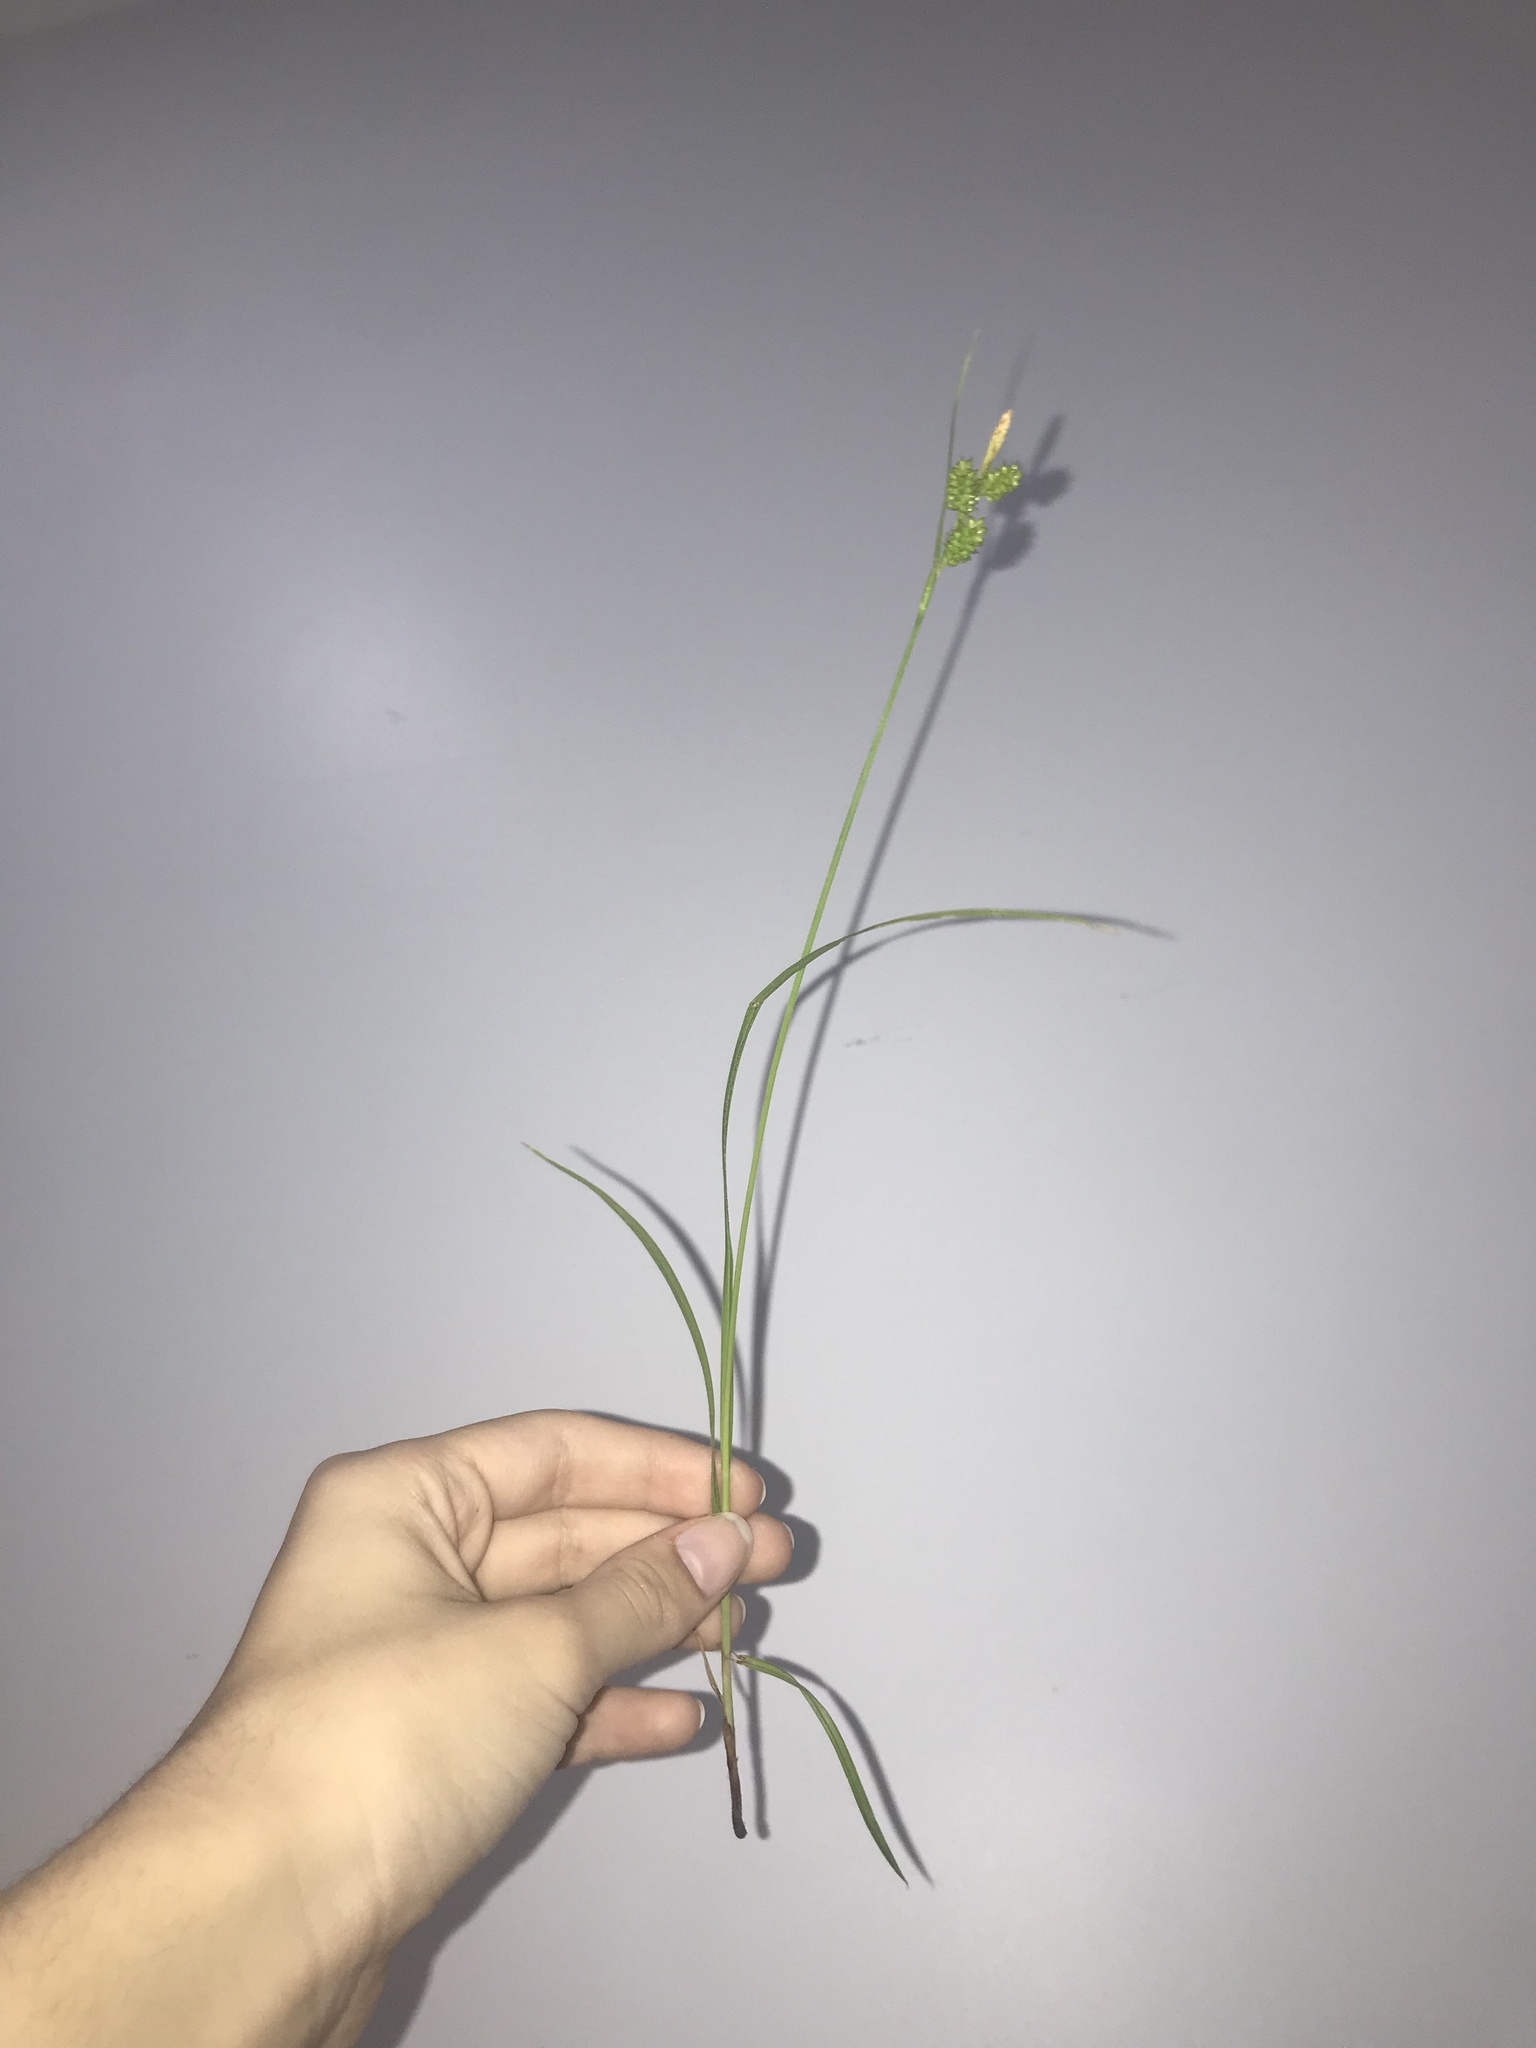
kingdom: Plantae
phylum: Tracheophyta
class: Liliopsida
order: Poales
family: Cyperaceae
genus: Carex
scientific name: Carex pallescens
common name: Pale sedge
